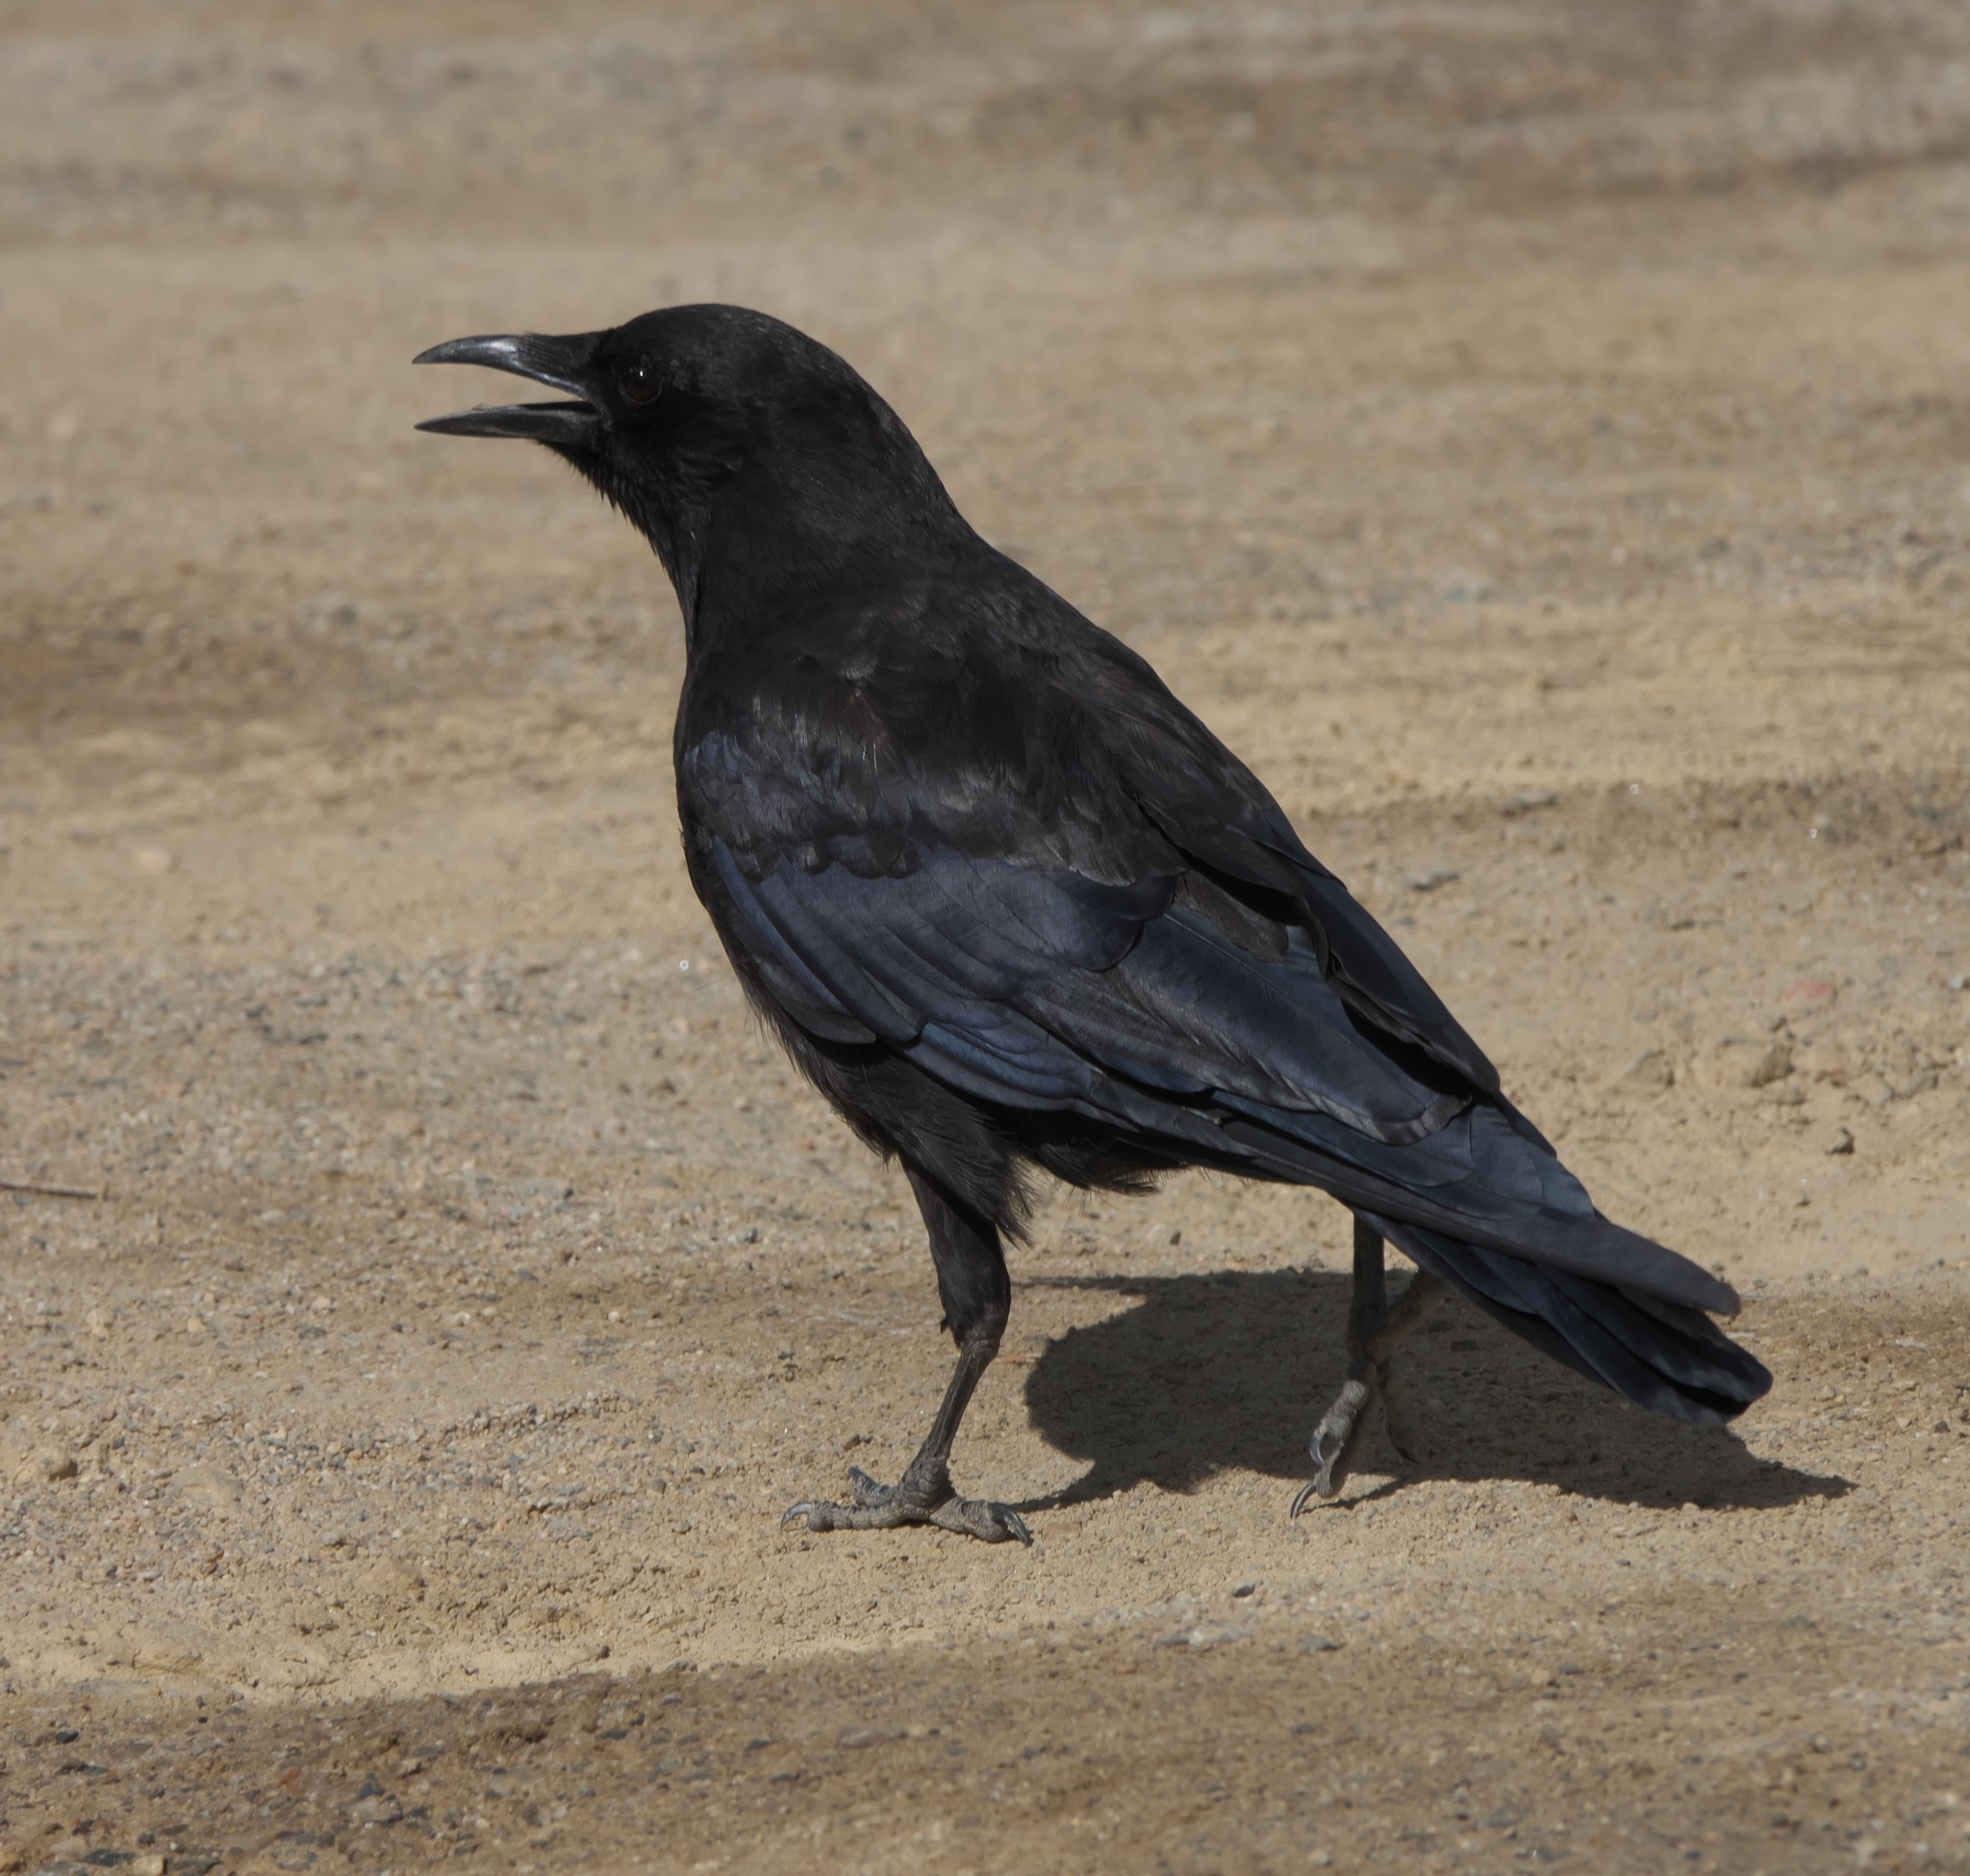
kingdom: Animalia
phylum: Chordata
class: Aves
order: Passeriformes
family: Corvidae
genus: Corvus
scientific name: Corvus brachyrhynchos
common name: American crow
